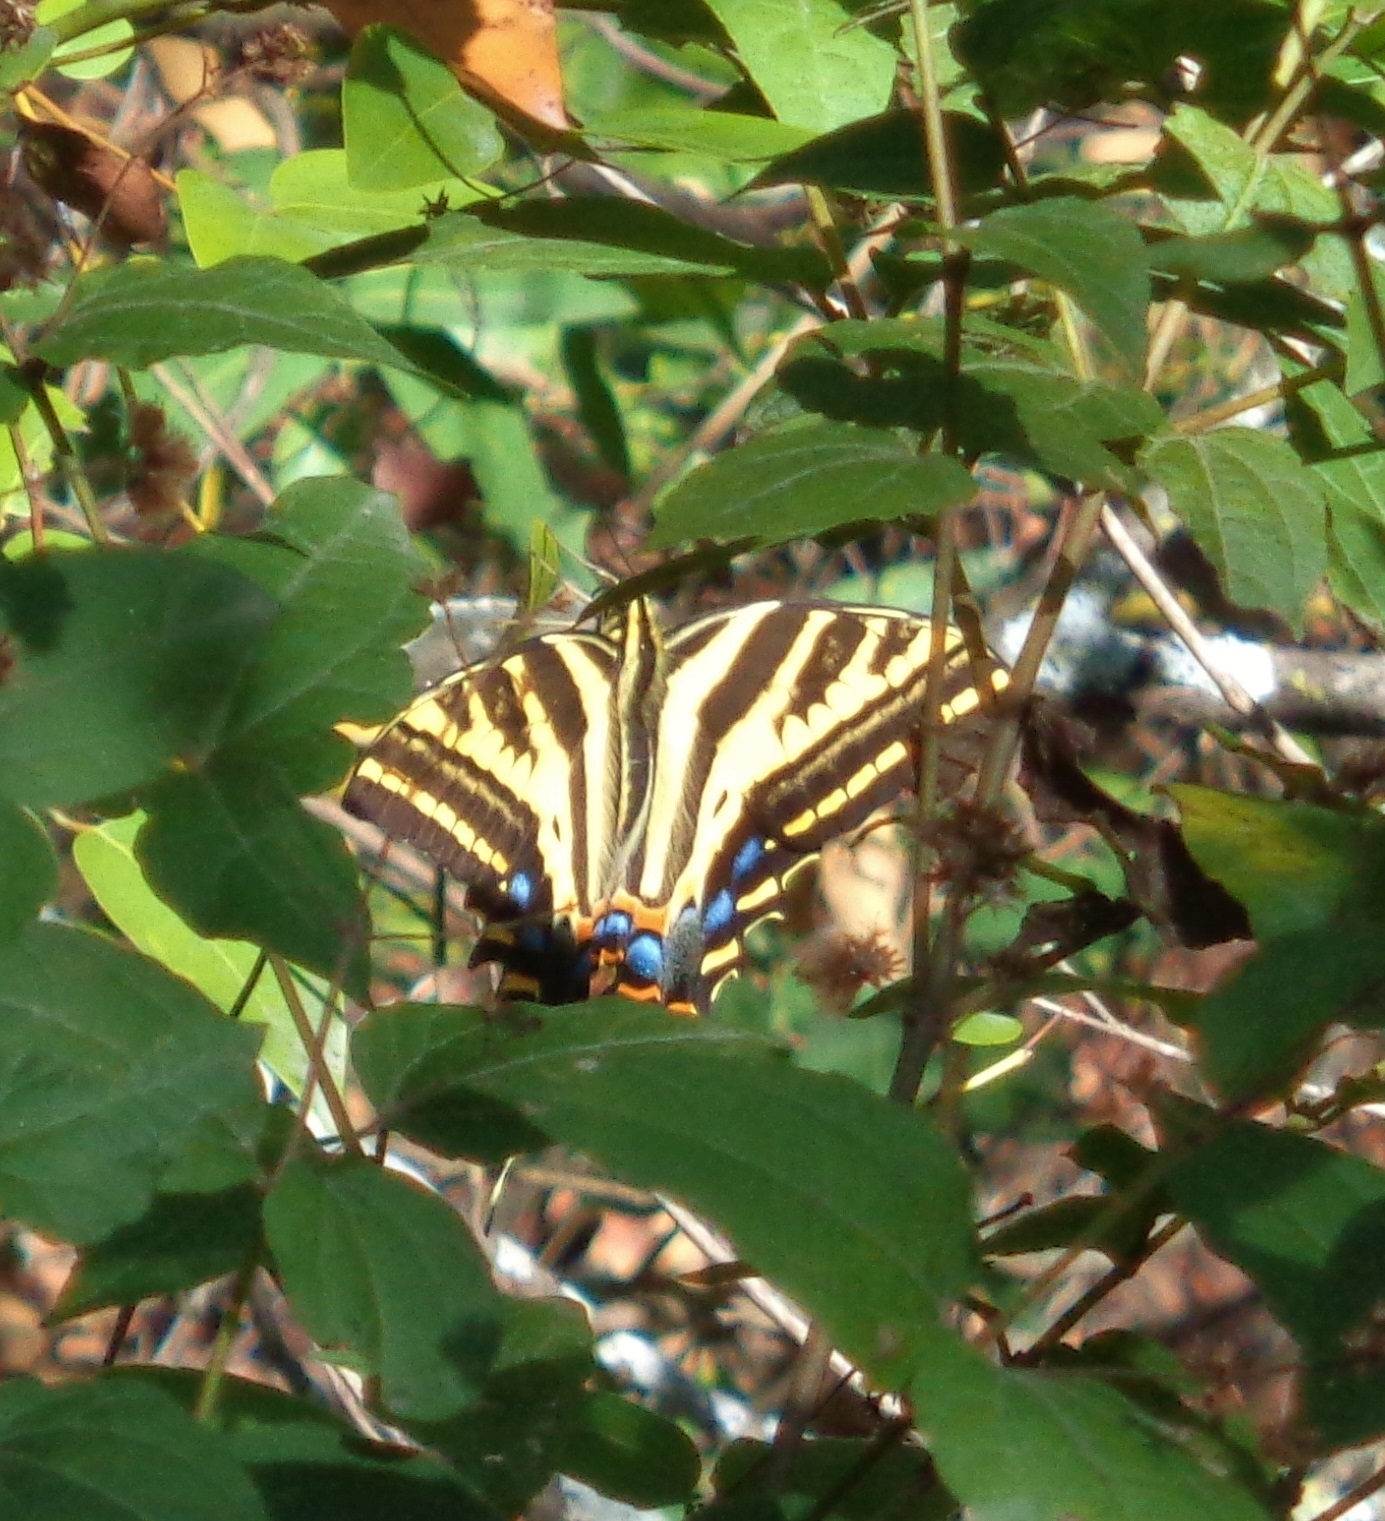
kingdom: Animalia
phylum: Arthropoda
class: Insecta
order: Lepidoptera
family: Papilionidae
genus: Papilio
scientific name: Papilio pilumnus
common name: Three-tailed tiger swallowtail
